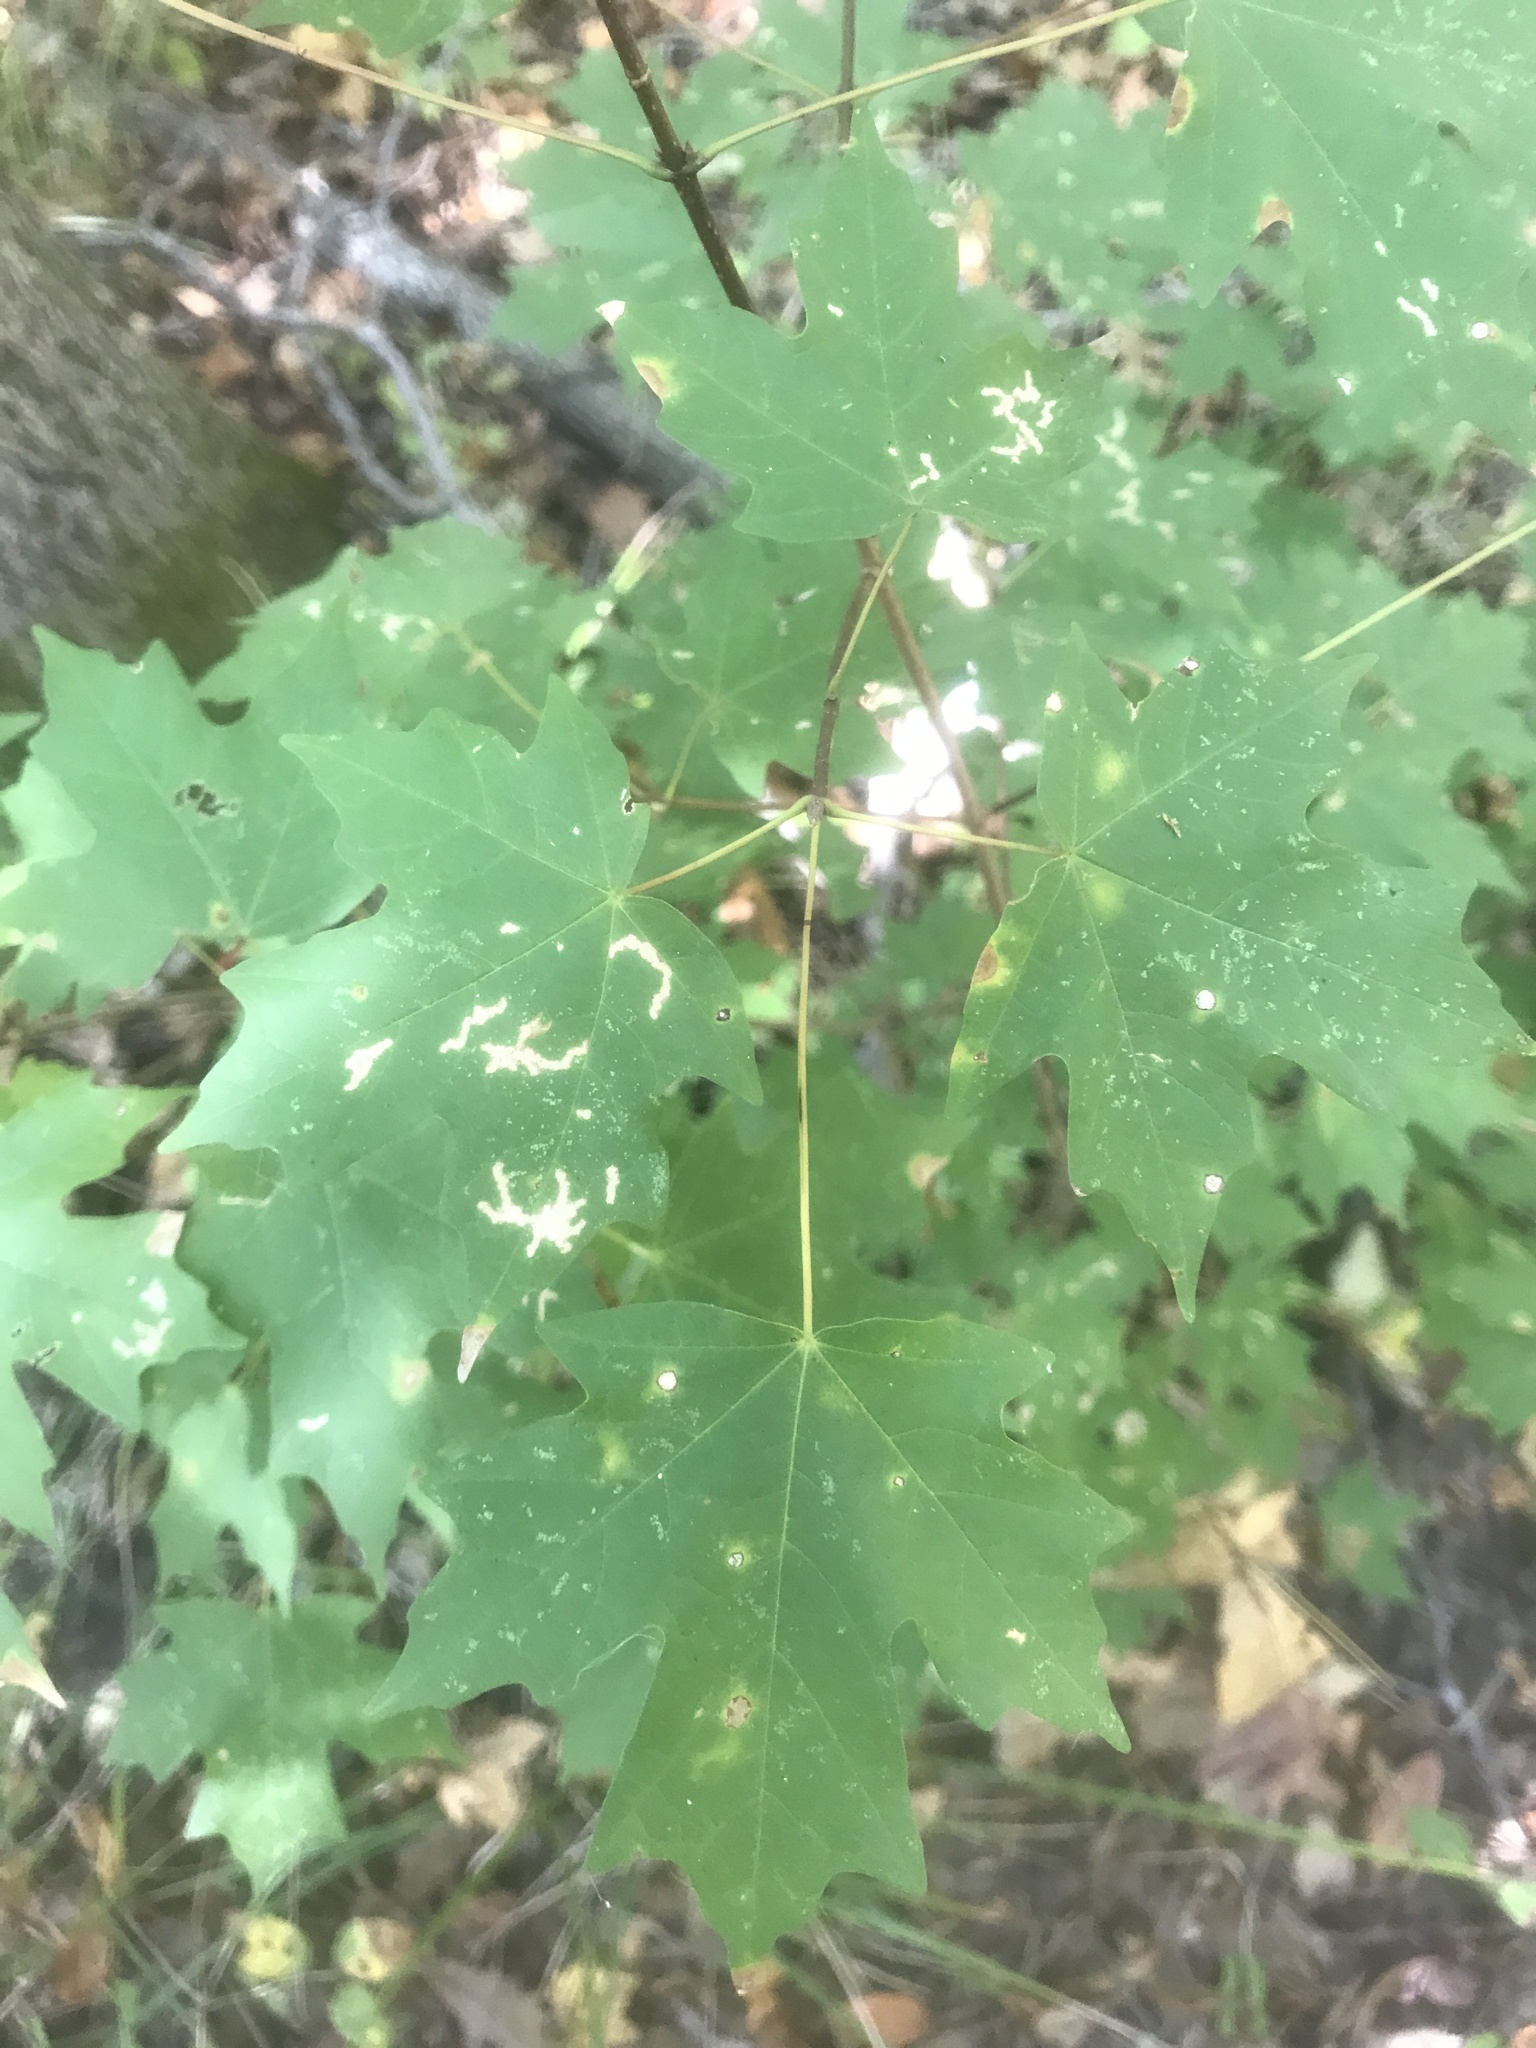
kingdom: Plantae
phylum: Tracheophyta
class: Magnoliopsida
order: Sapindales
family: Sapindaceae
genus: Acer
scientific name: Acer floridanum
